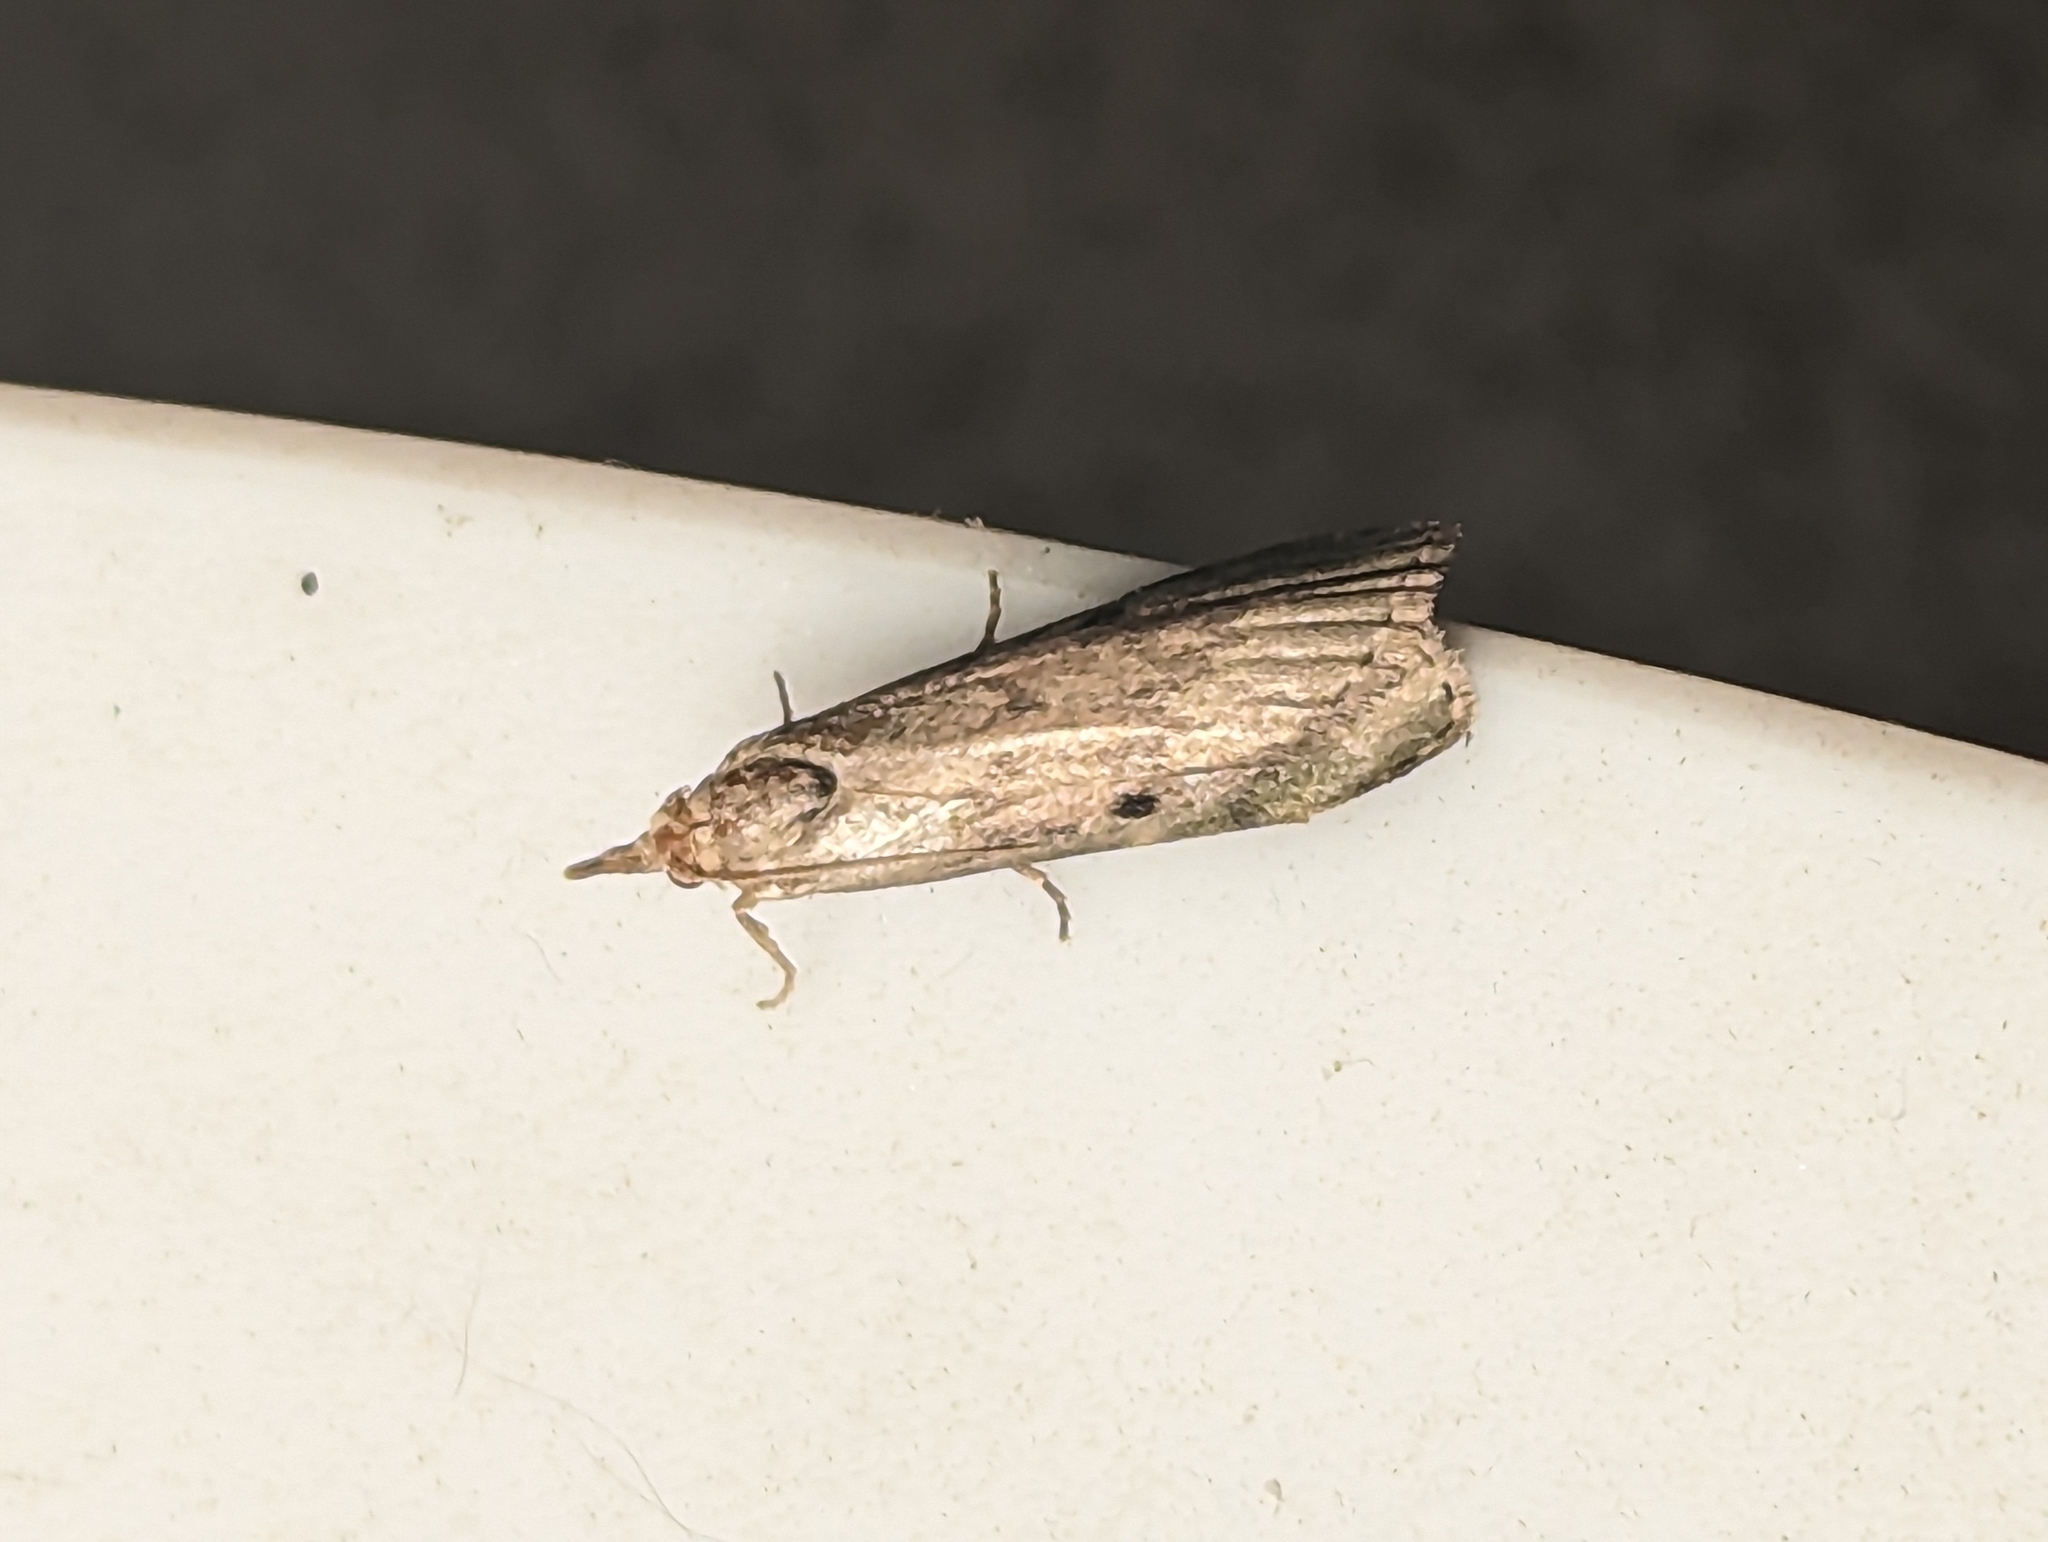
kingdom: Animalia
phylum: Arthropoda
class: Insecta
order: Lepidoptera
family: Pyralidae
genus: Aphomia
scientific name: Aphomia sociella
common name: Bee moth
